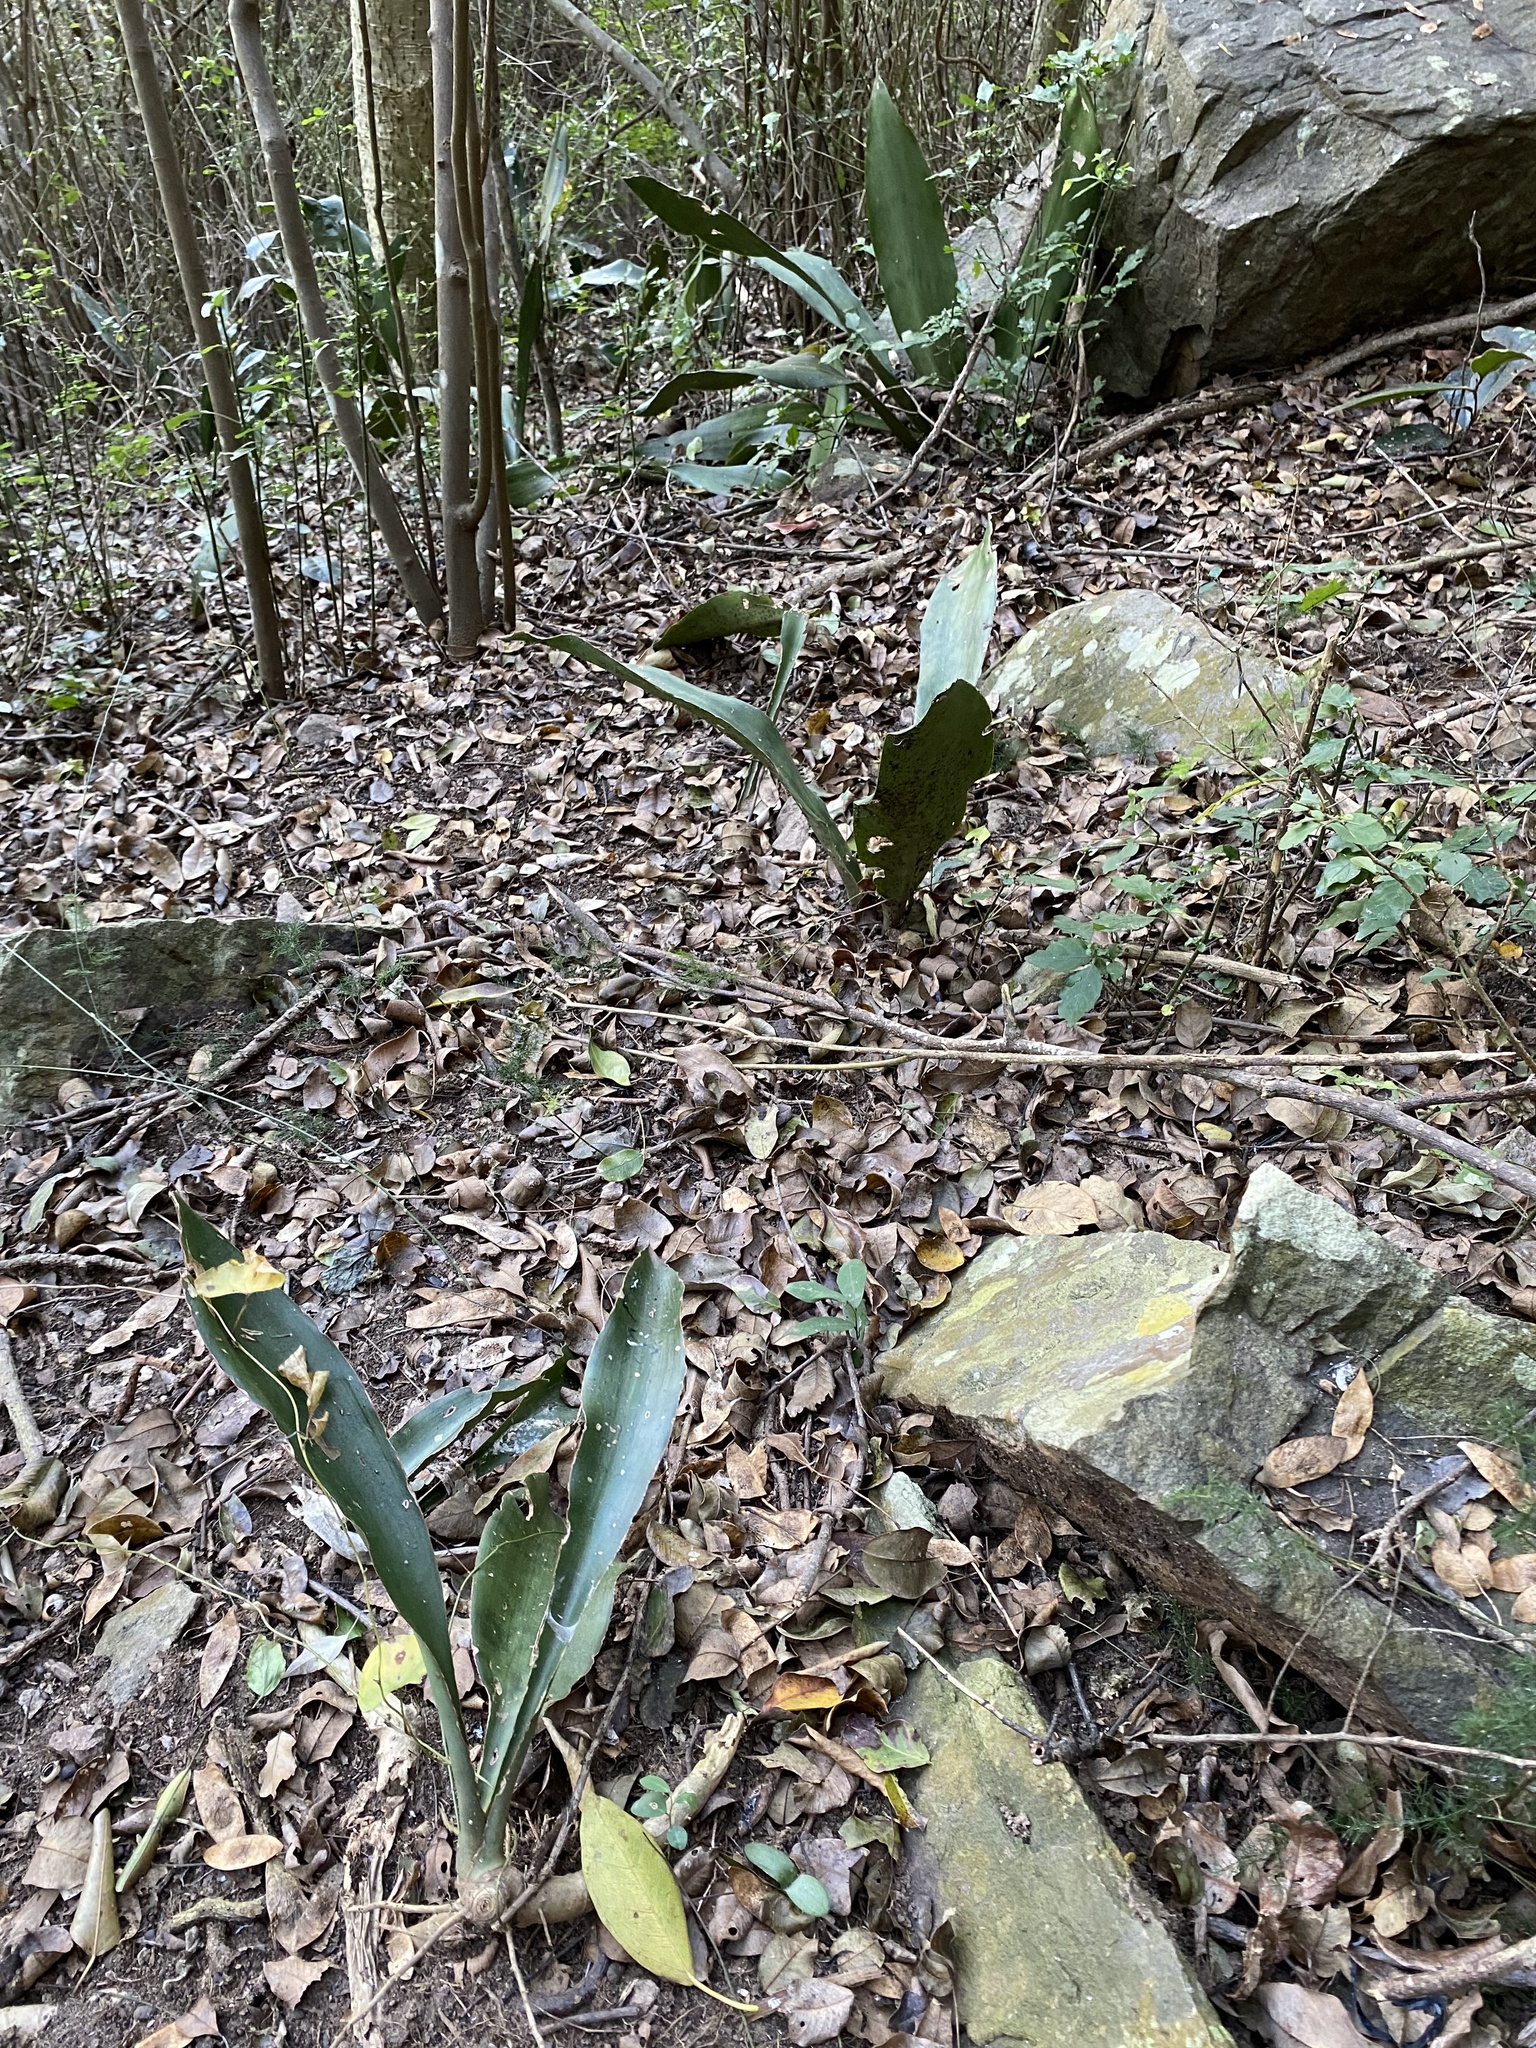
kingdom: Plantae
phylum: Tracheophyta
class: Liliopsida
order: Asparagales
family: Asparagaceae
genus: Dracaena
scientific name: Dracaena hyacinthoides
